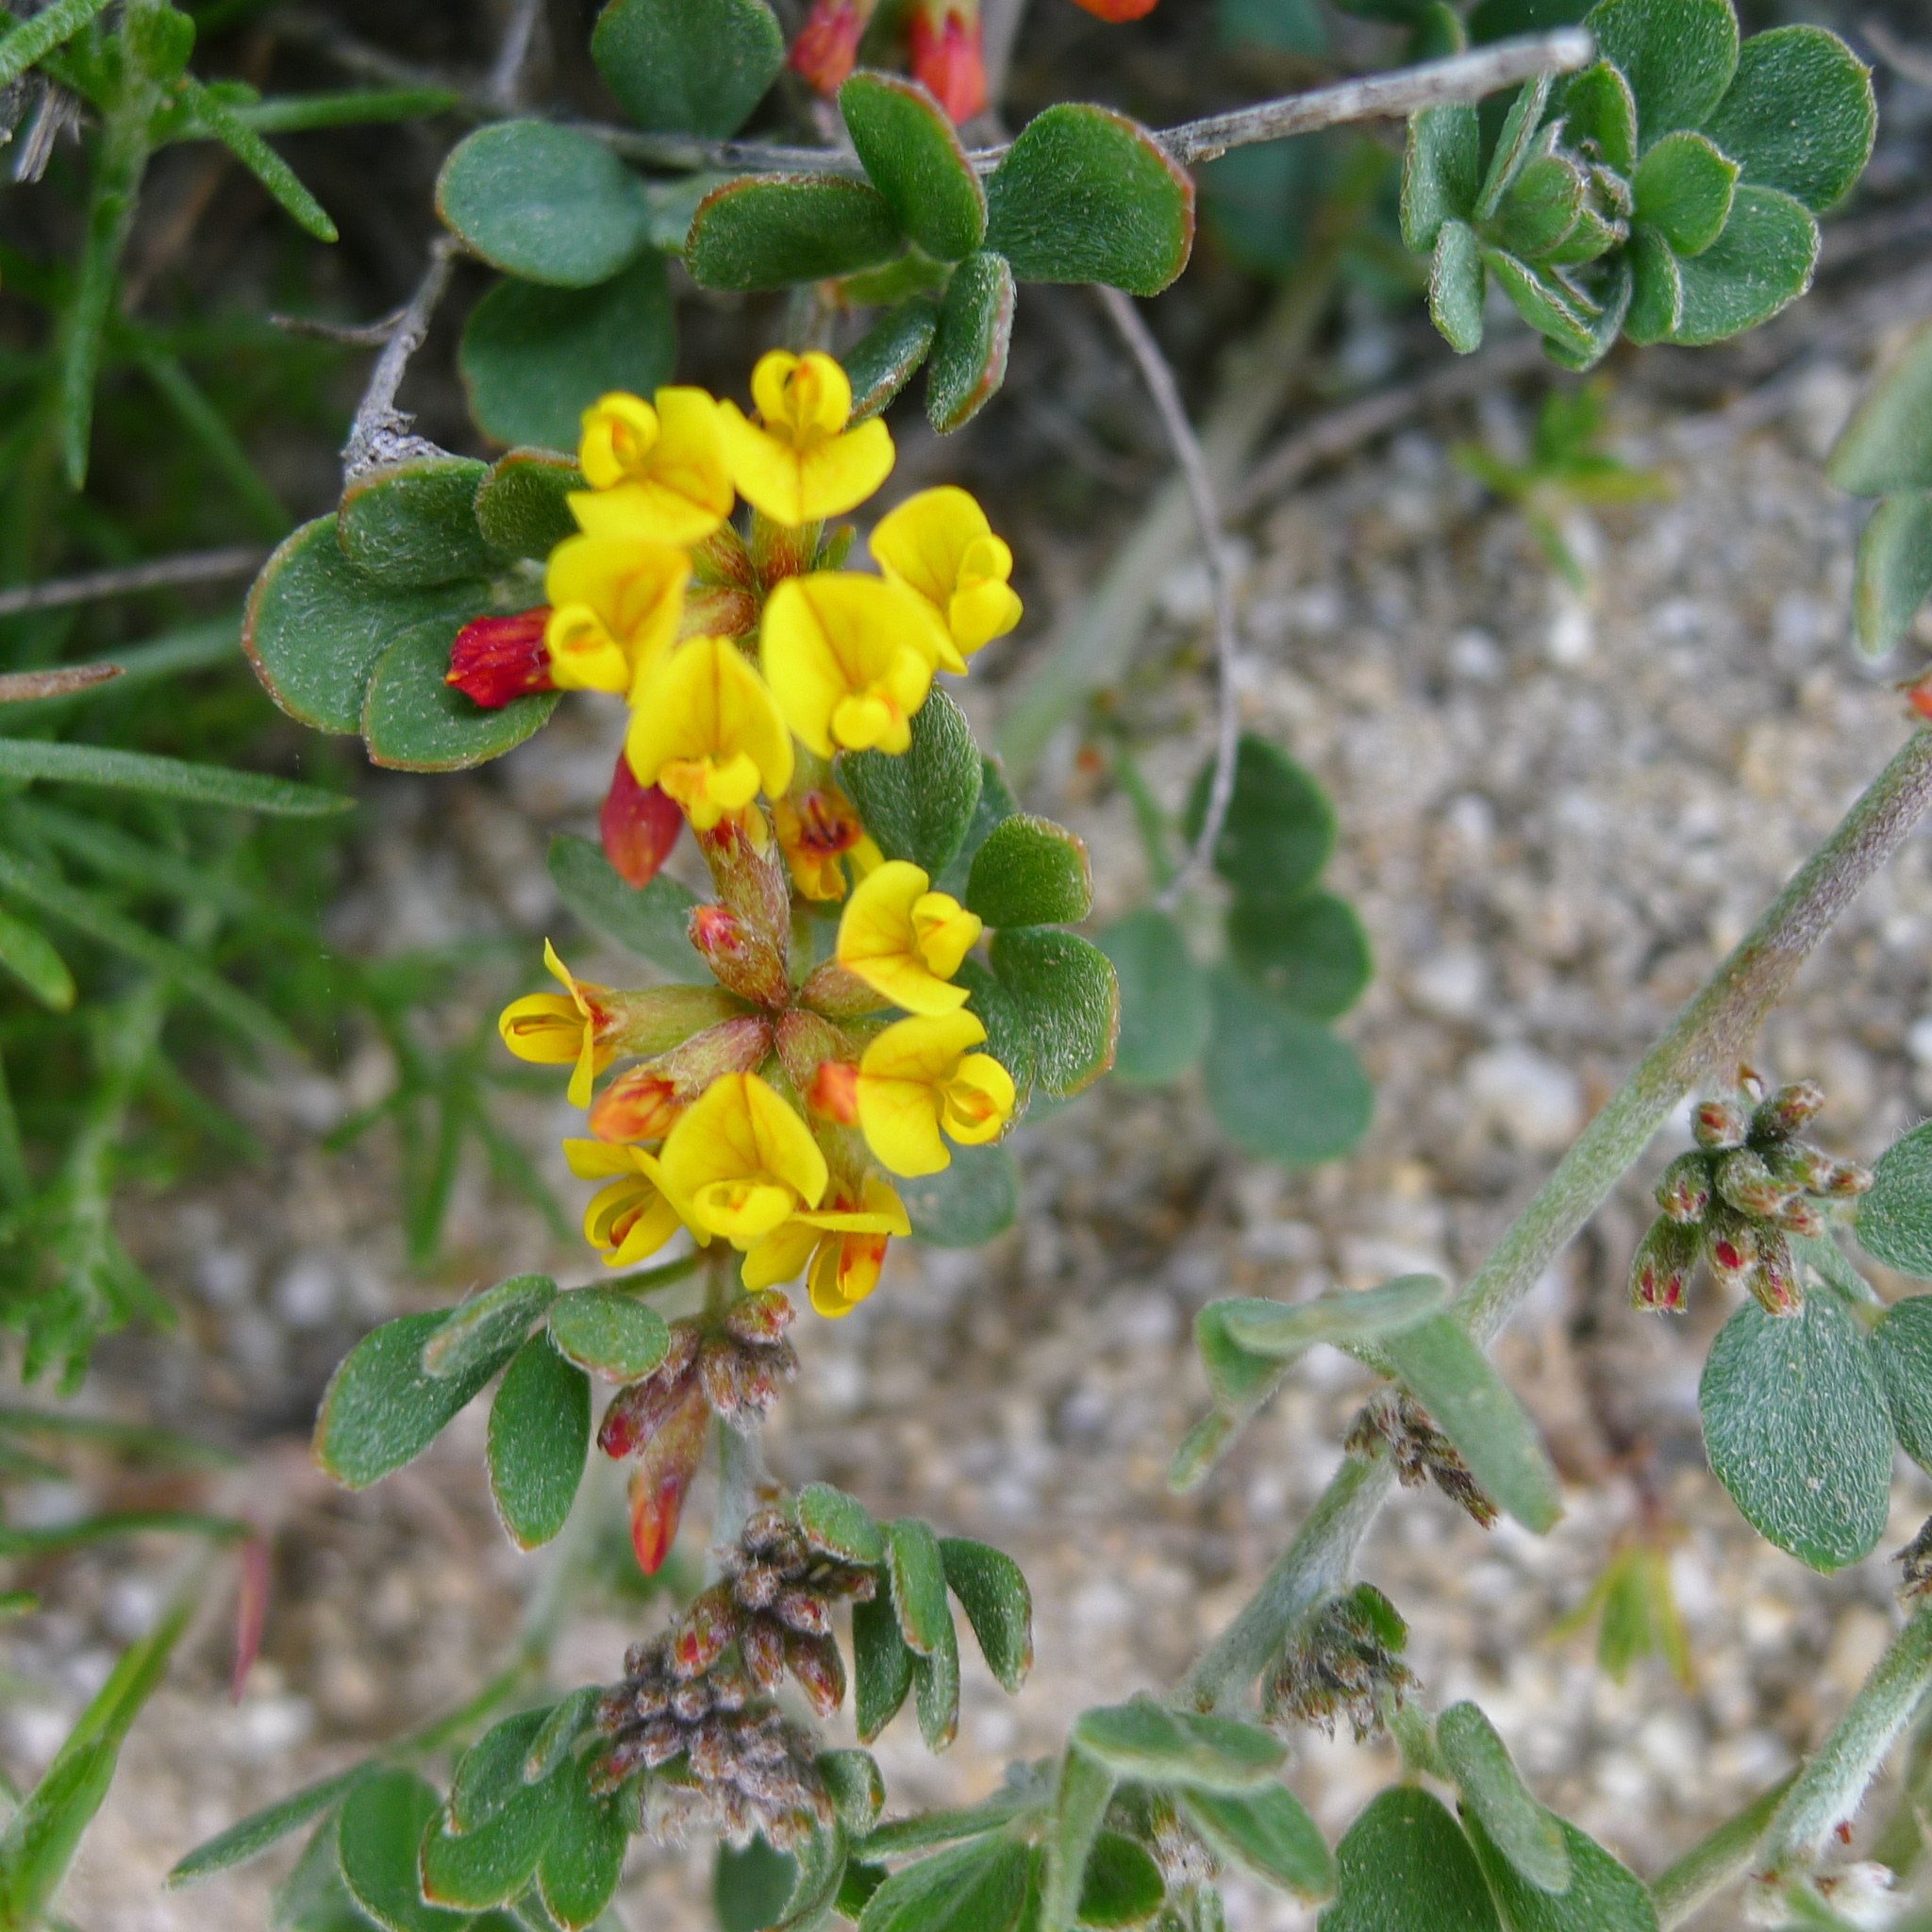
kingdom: Plantae
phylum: Tracheophyta
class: Magnoliopsida
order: Fabales
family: Fabaceae
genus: Acmispon
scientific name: Acmispon glaber
